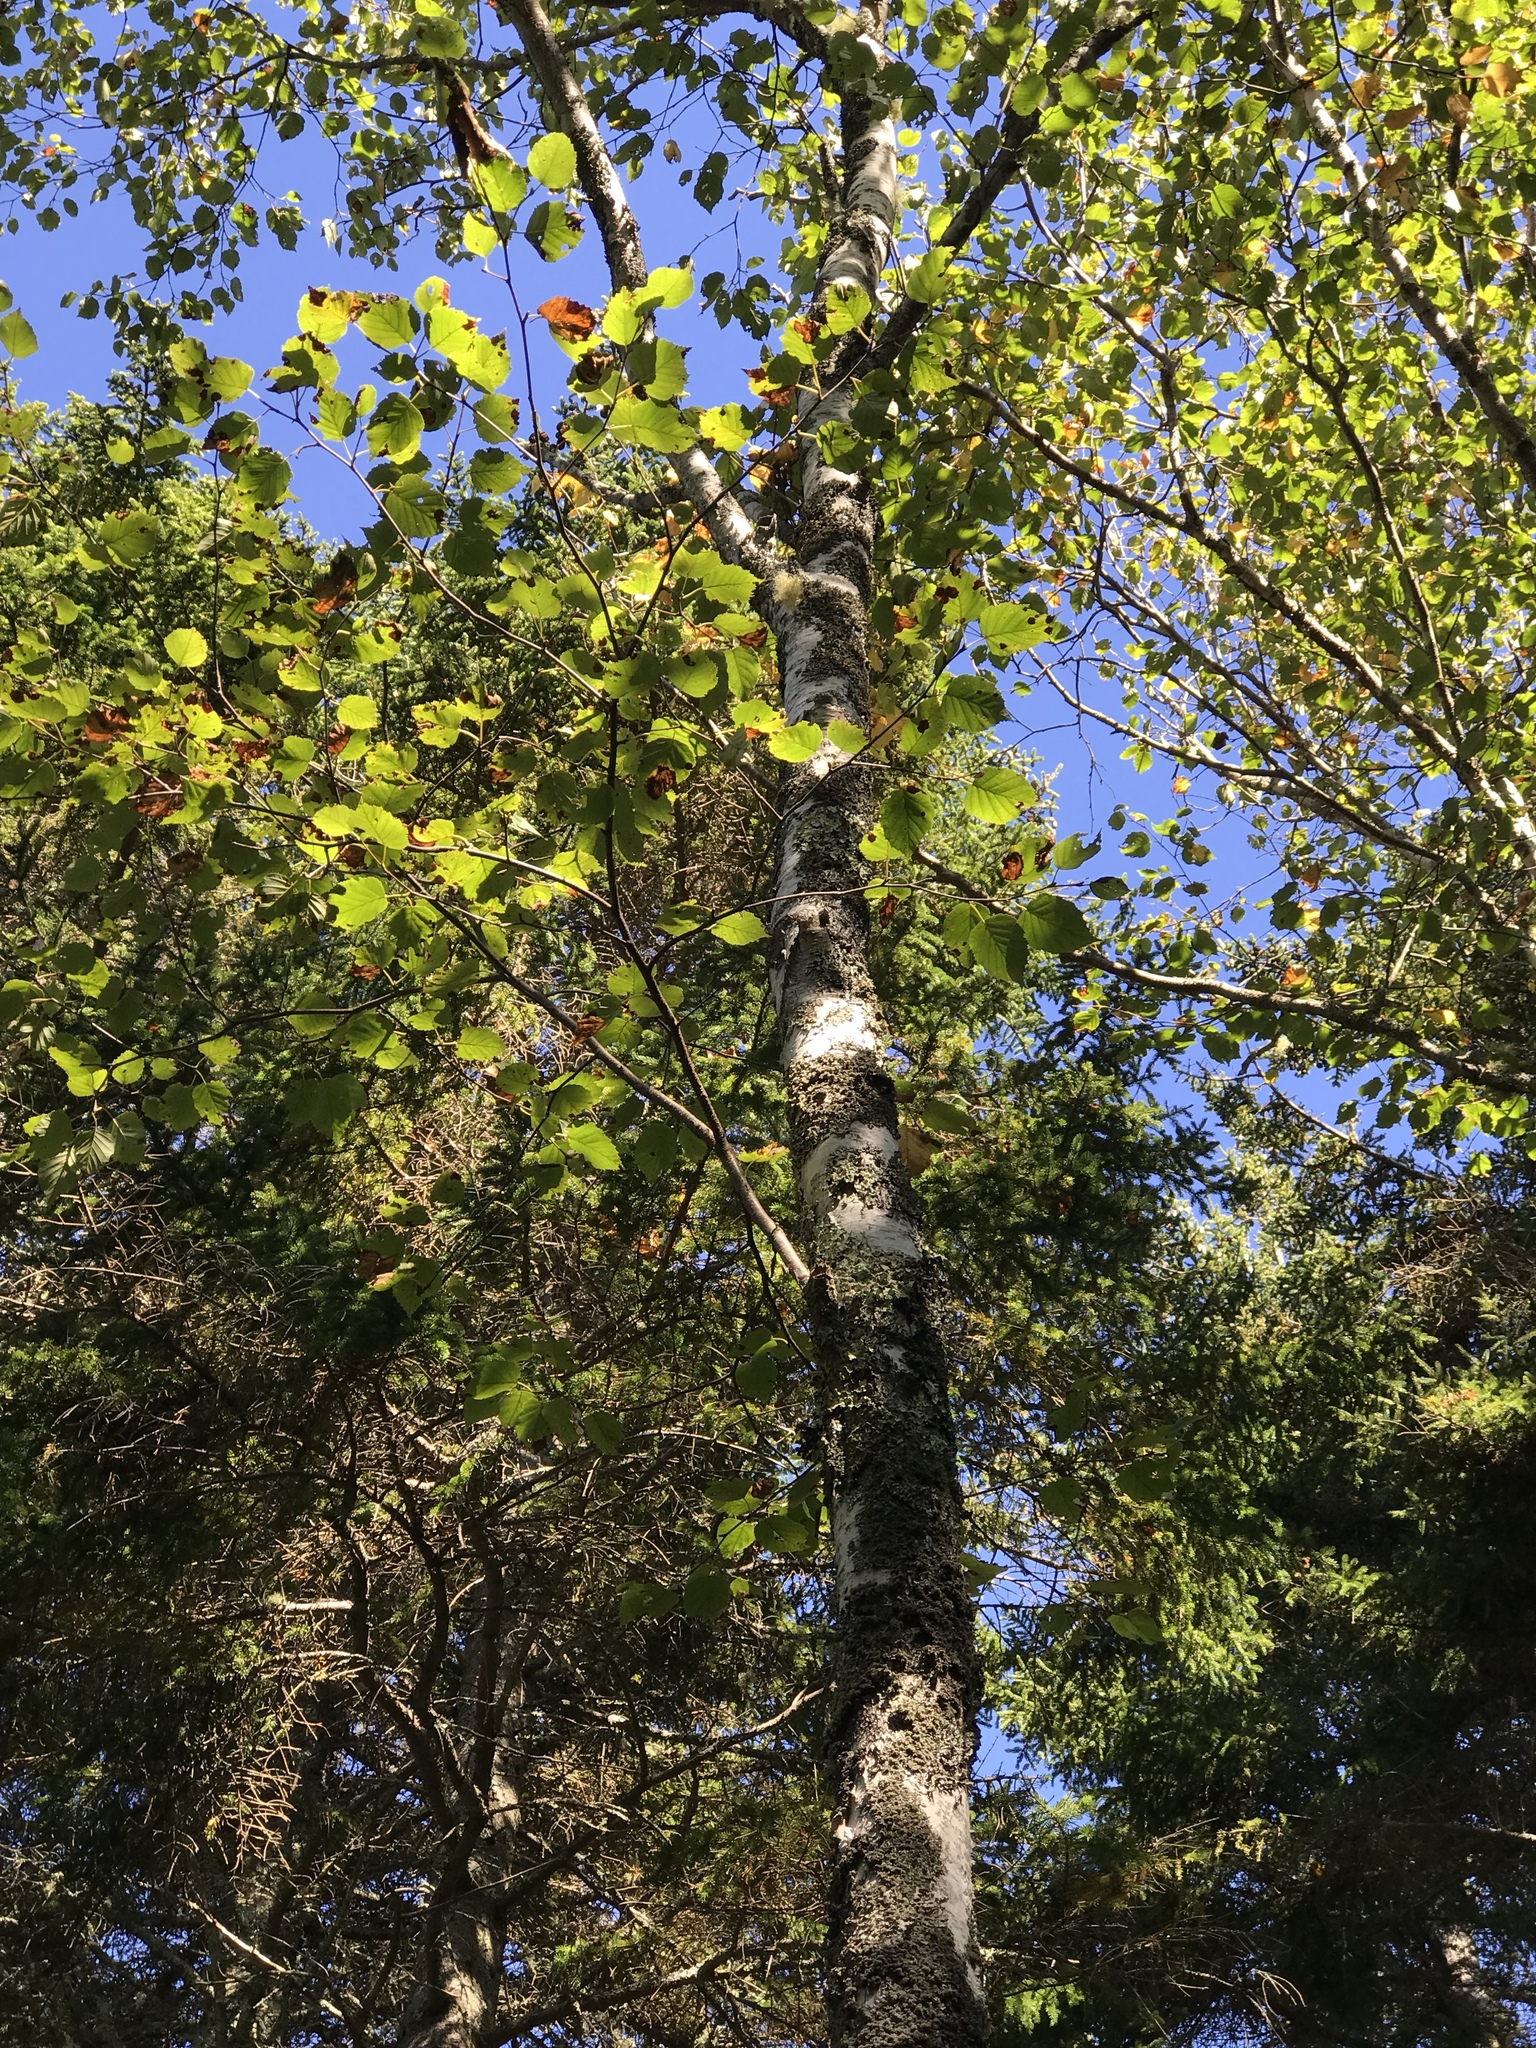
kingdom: Plantae
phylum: Tracheophyta
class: Magnoliopsida
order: Fagales
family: Betulaceae
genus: Betula
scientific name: Betula papyrifera
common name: Paper birch
